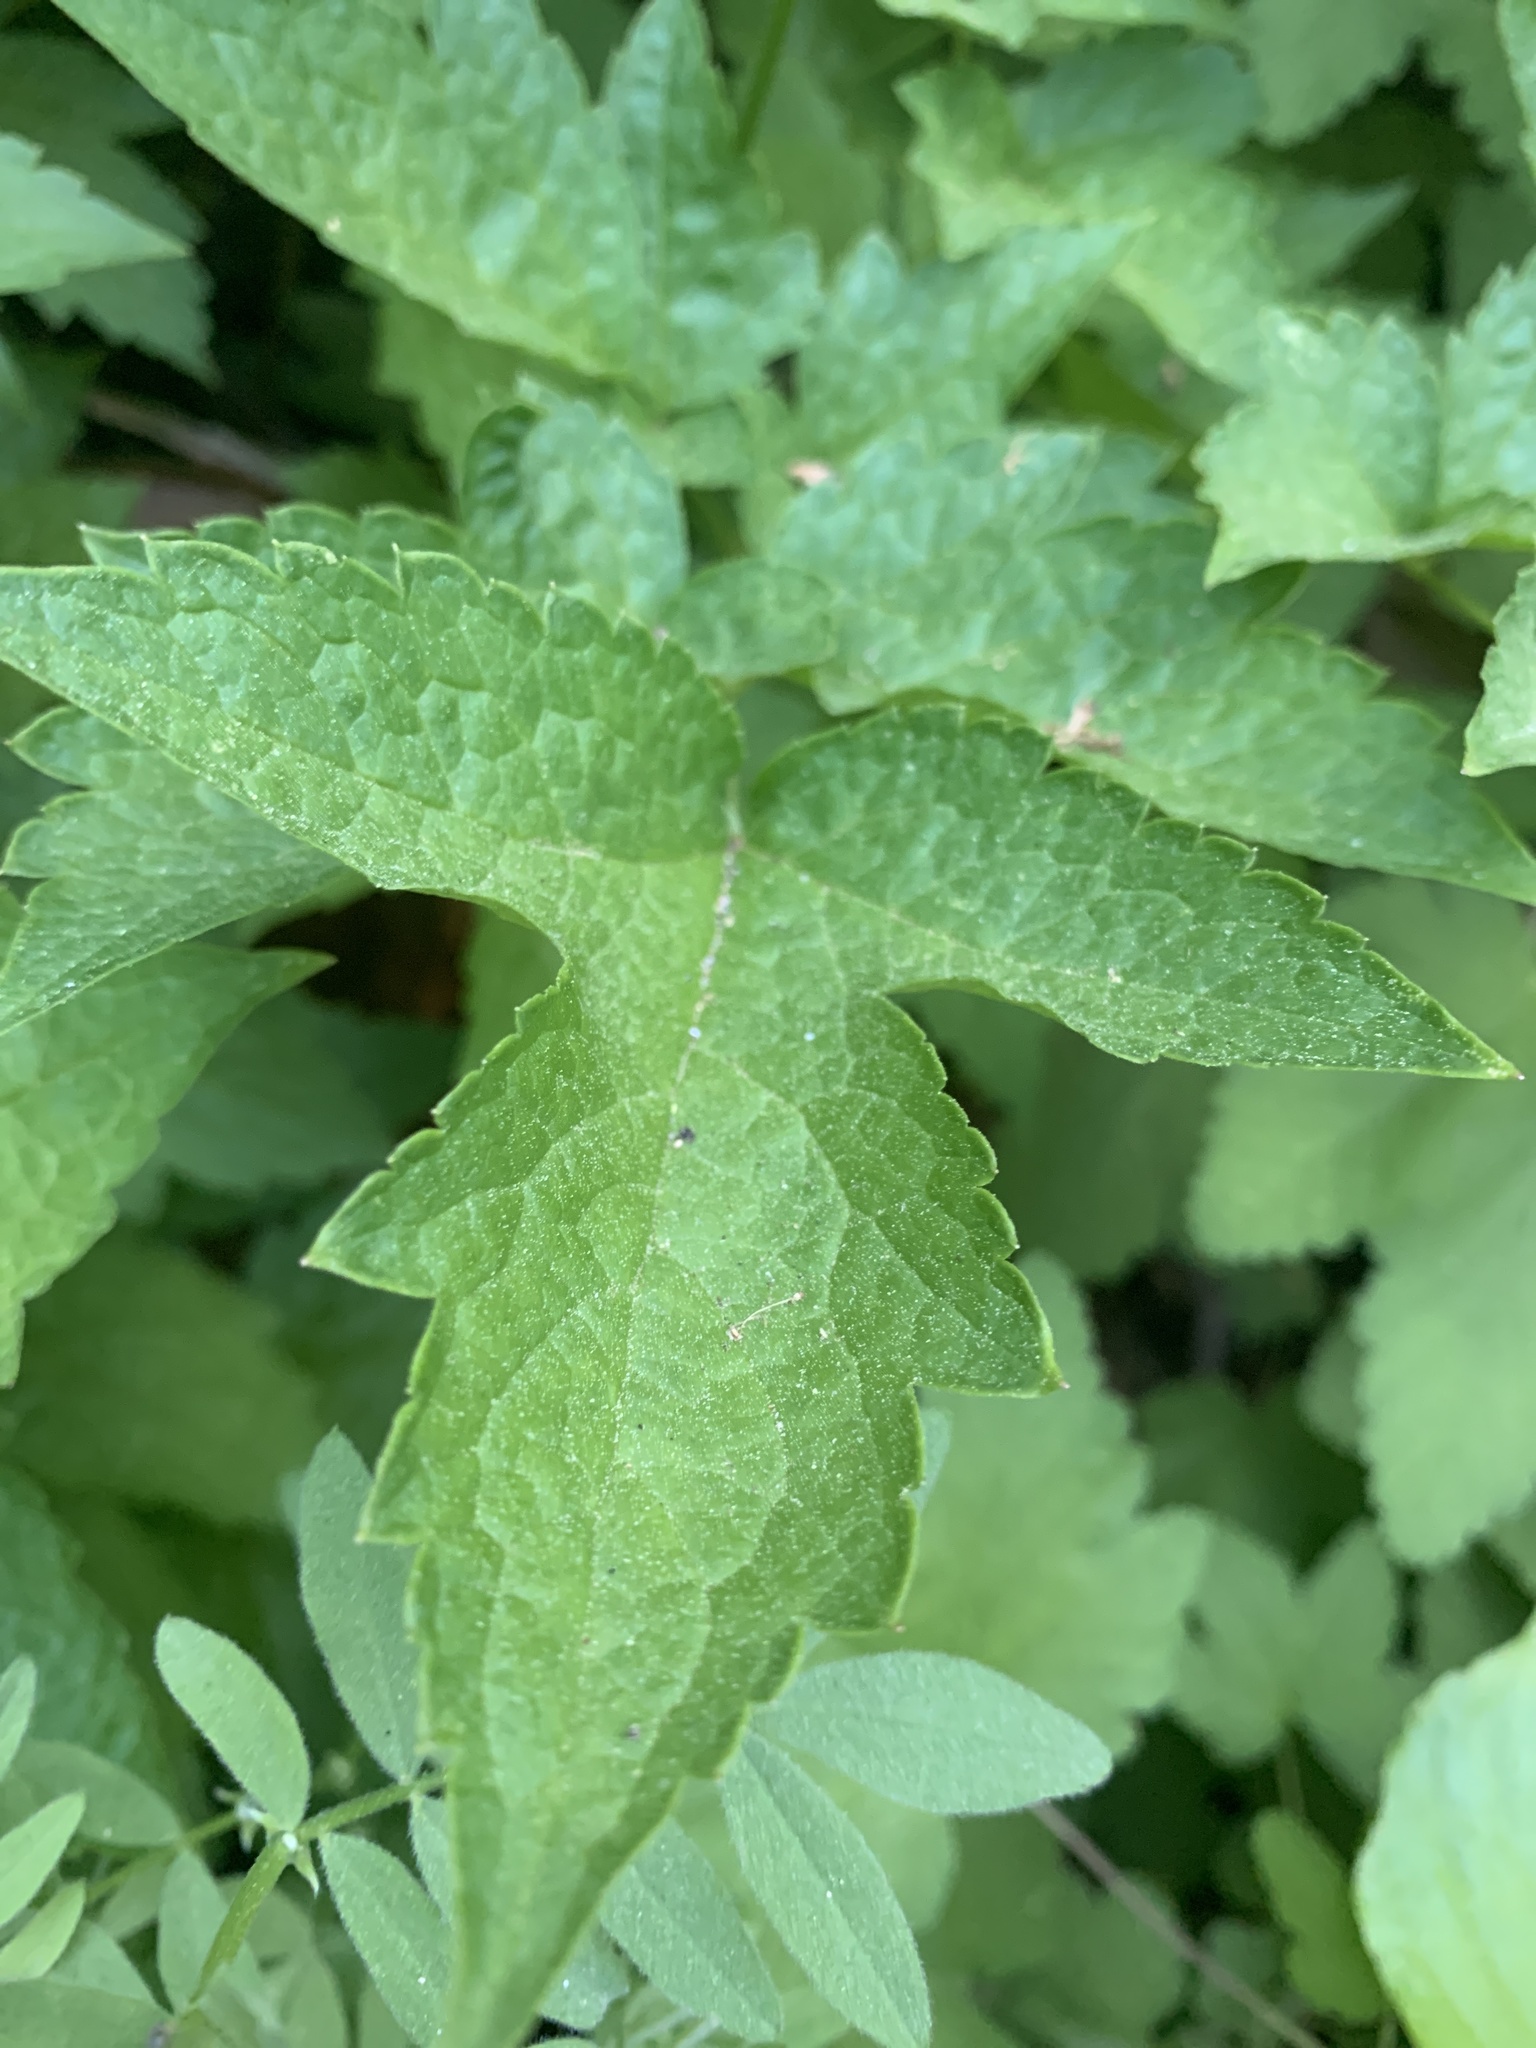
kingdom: Plantae
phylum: Tracheophyta
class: Magnoliopsida
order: Ranunculales
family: Ranunculaceae
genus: Actaea
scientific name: Actaea rubra
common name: Red baneberry
